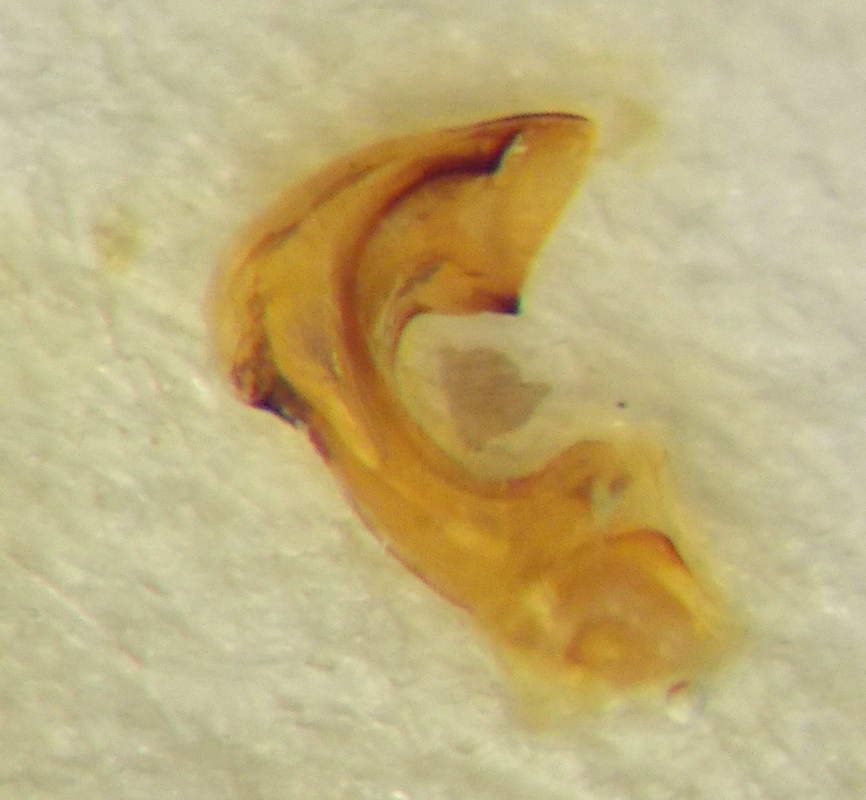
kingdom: Animalia
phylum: Arthropoda
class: Insecta
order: Hemiptera
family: Pentatomidae
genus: Carpocoris
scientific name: Carpocoris mediterraneus
